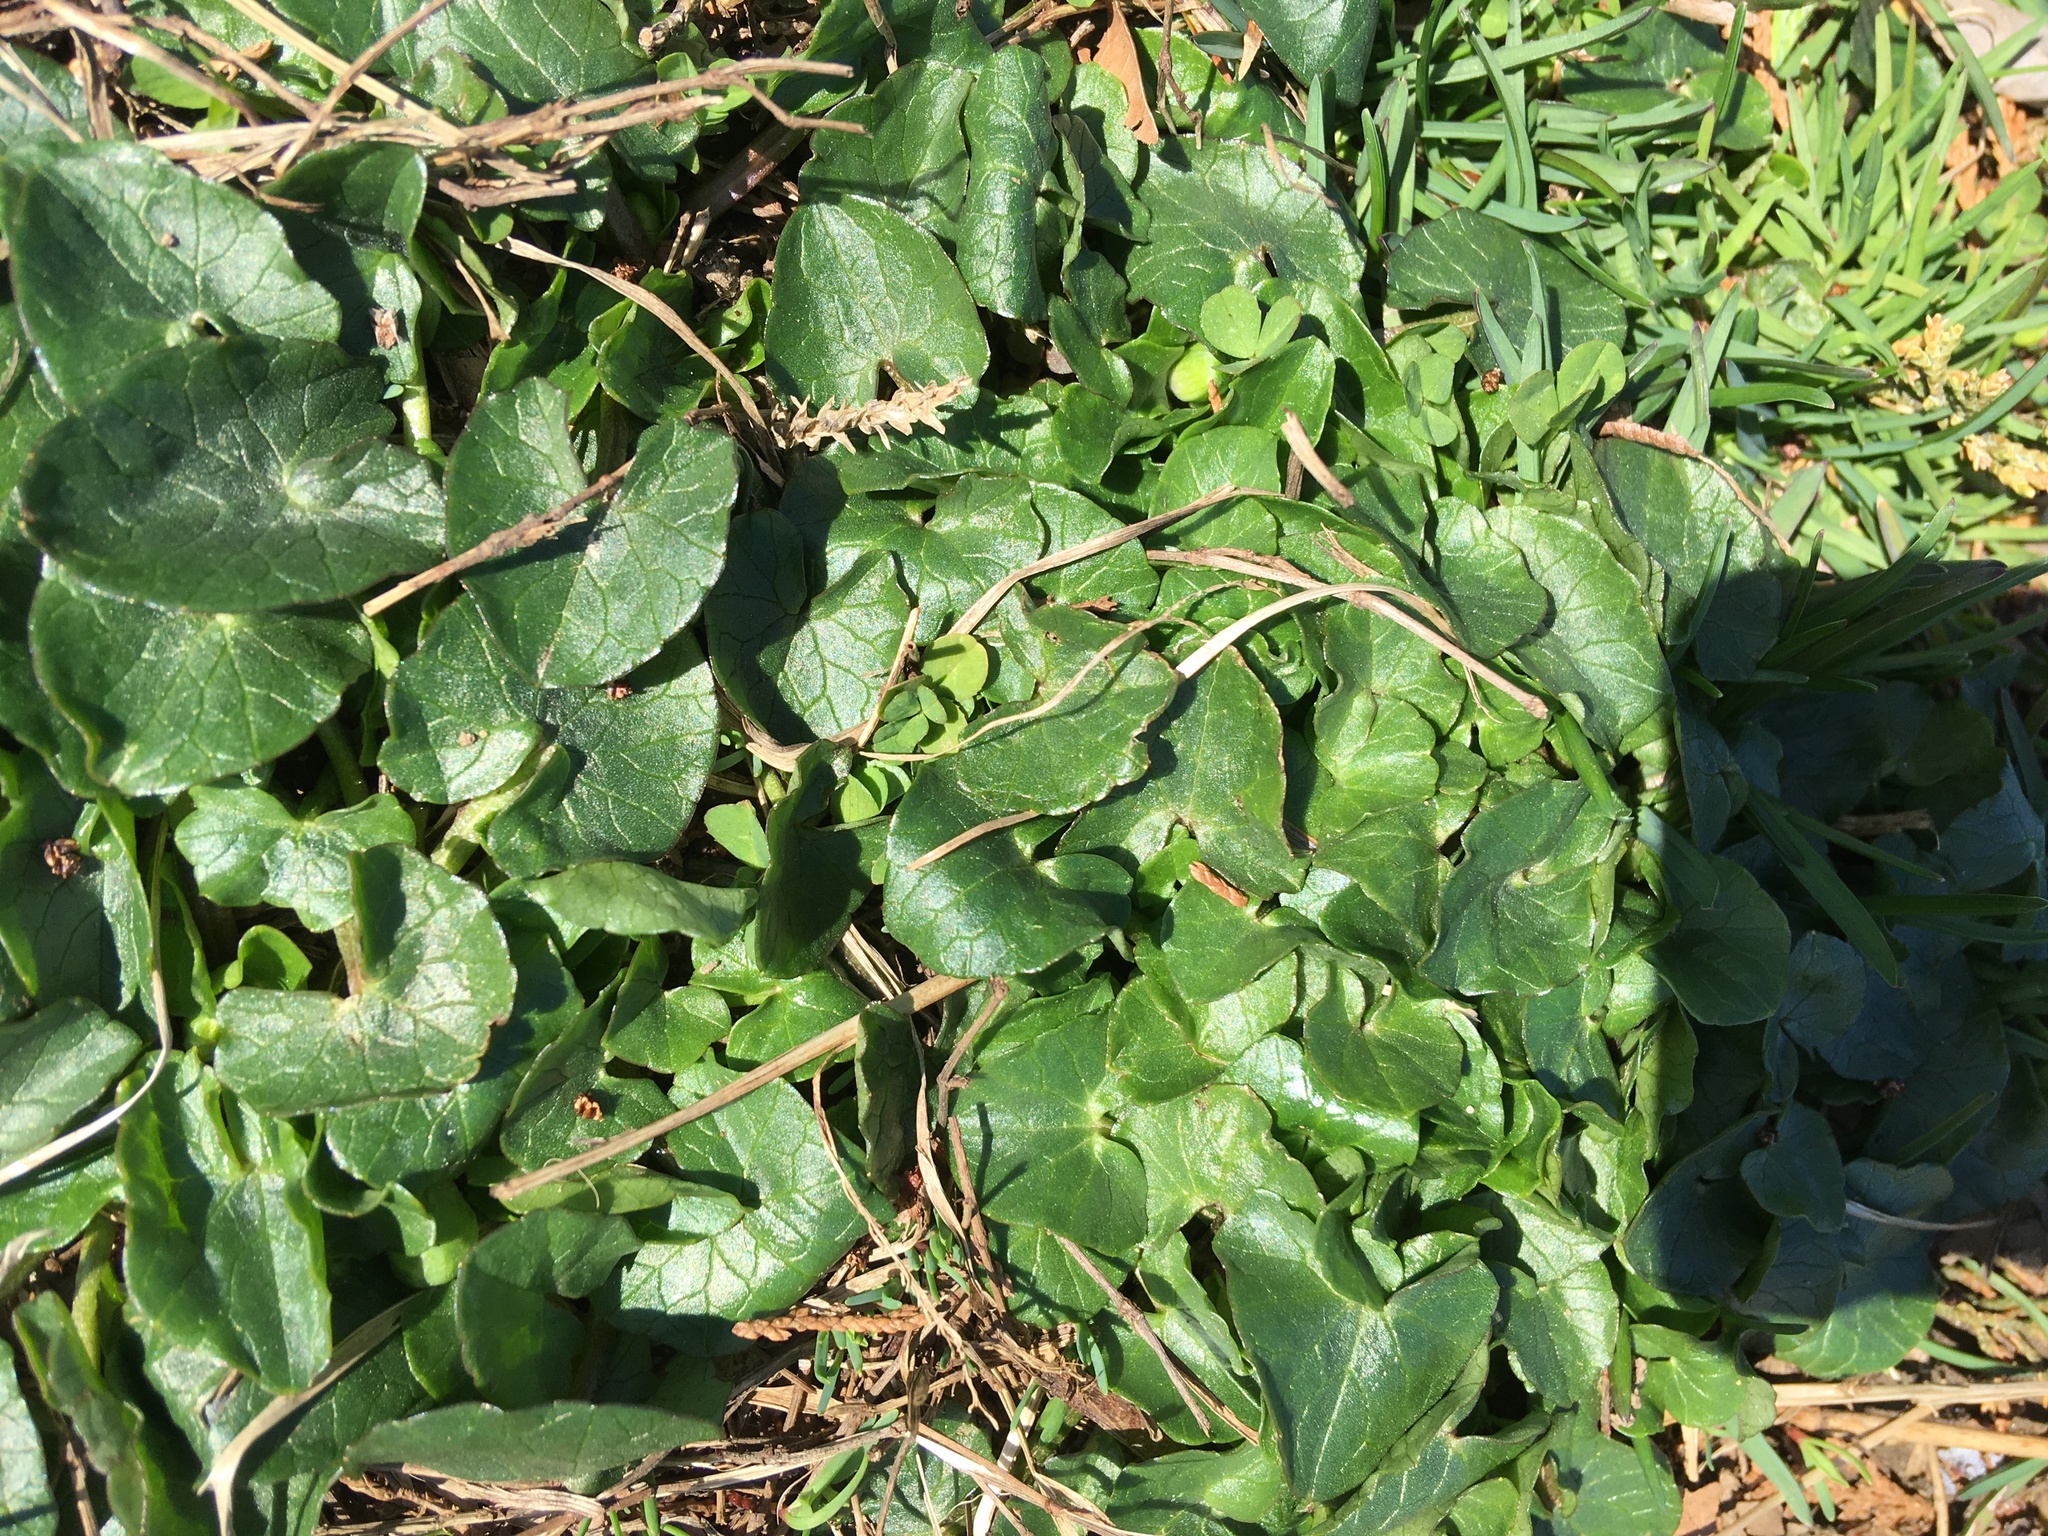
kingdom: Plantae
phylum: Tracheophyta
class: Magnoliopsida
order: Ranunculales
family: Ranunculaceae
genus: Ficaria
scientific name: Ficaria verna
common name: Lesser celandine
